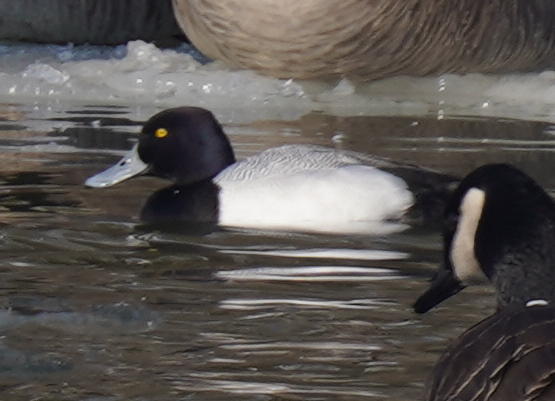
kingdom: Animalia
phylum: Chordata
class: Aves
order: Anseriformes
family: Anatidae
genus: Aythya
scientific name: Aythya affinis
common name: Lesser scaup
